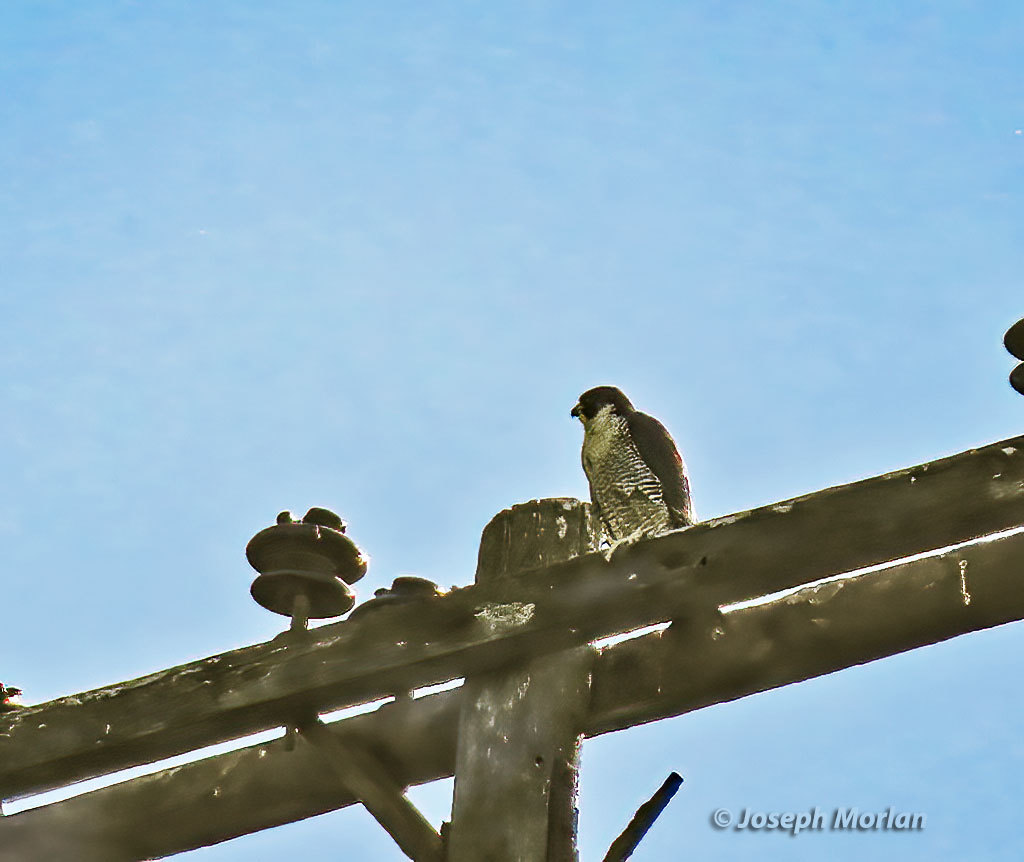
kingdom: Animalia
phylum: Chordata
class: Aves
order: Falconiformes
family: Falconidae
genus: Falco
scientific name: Falco peregrinus
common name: Peregrine falcon
